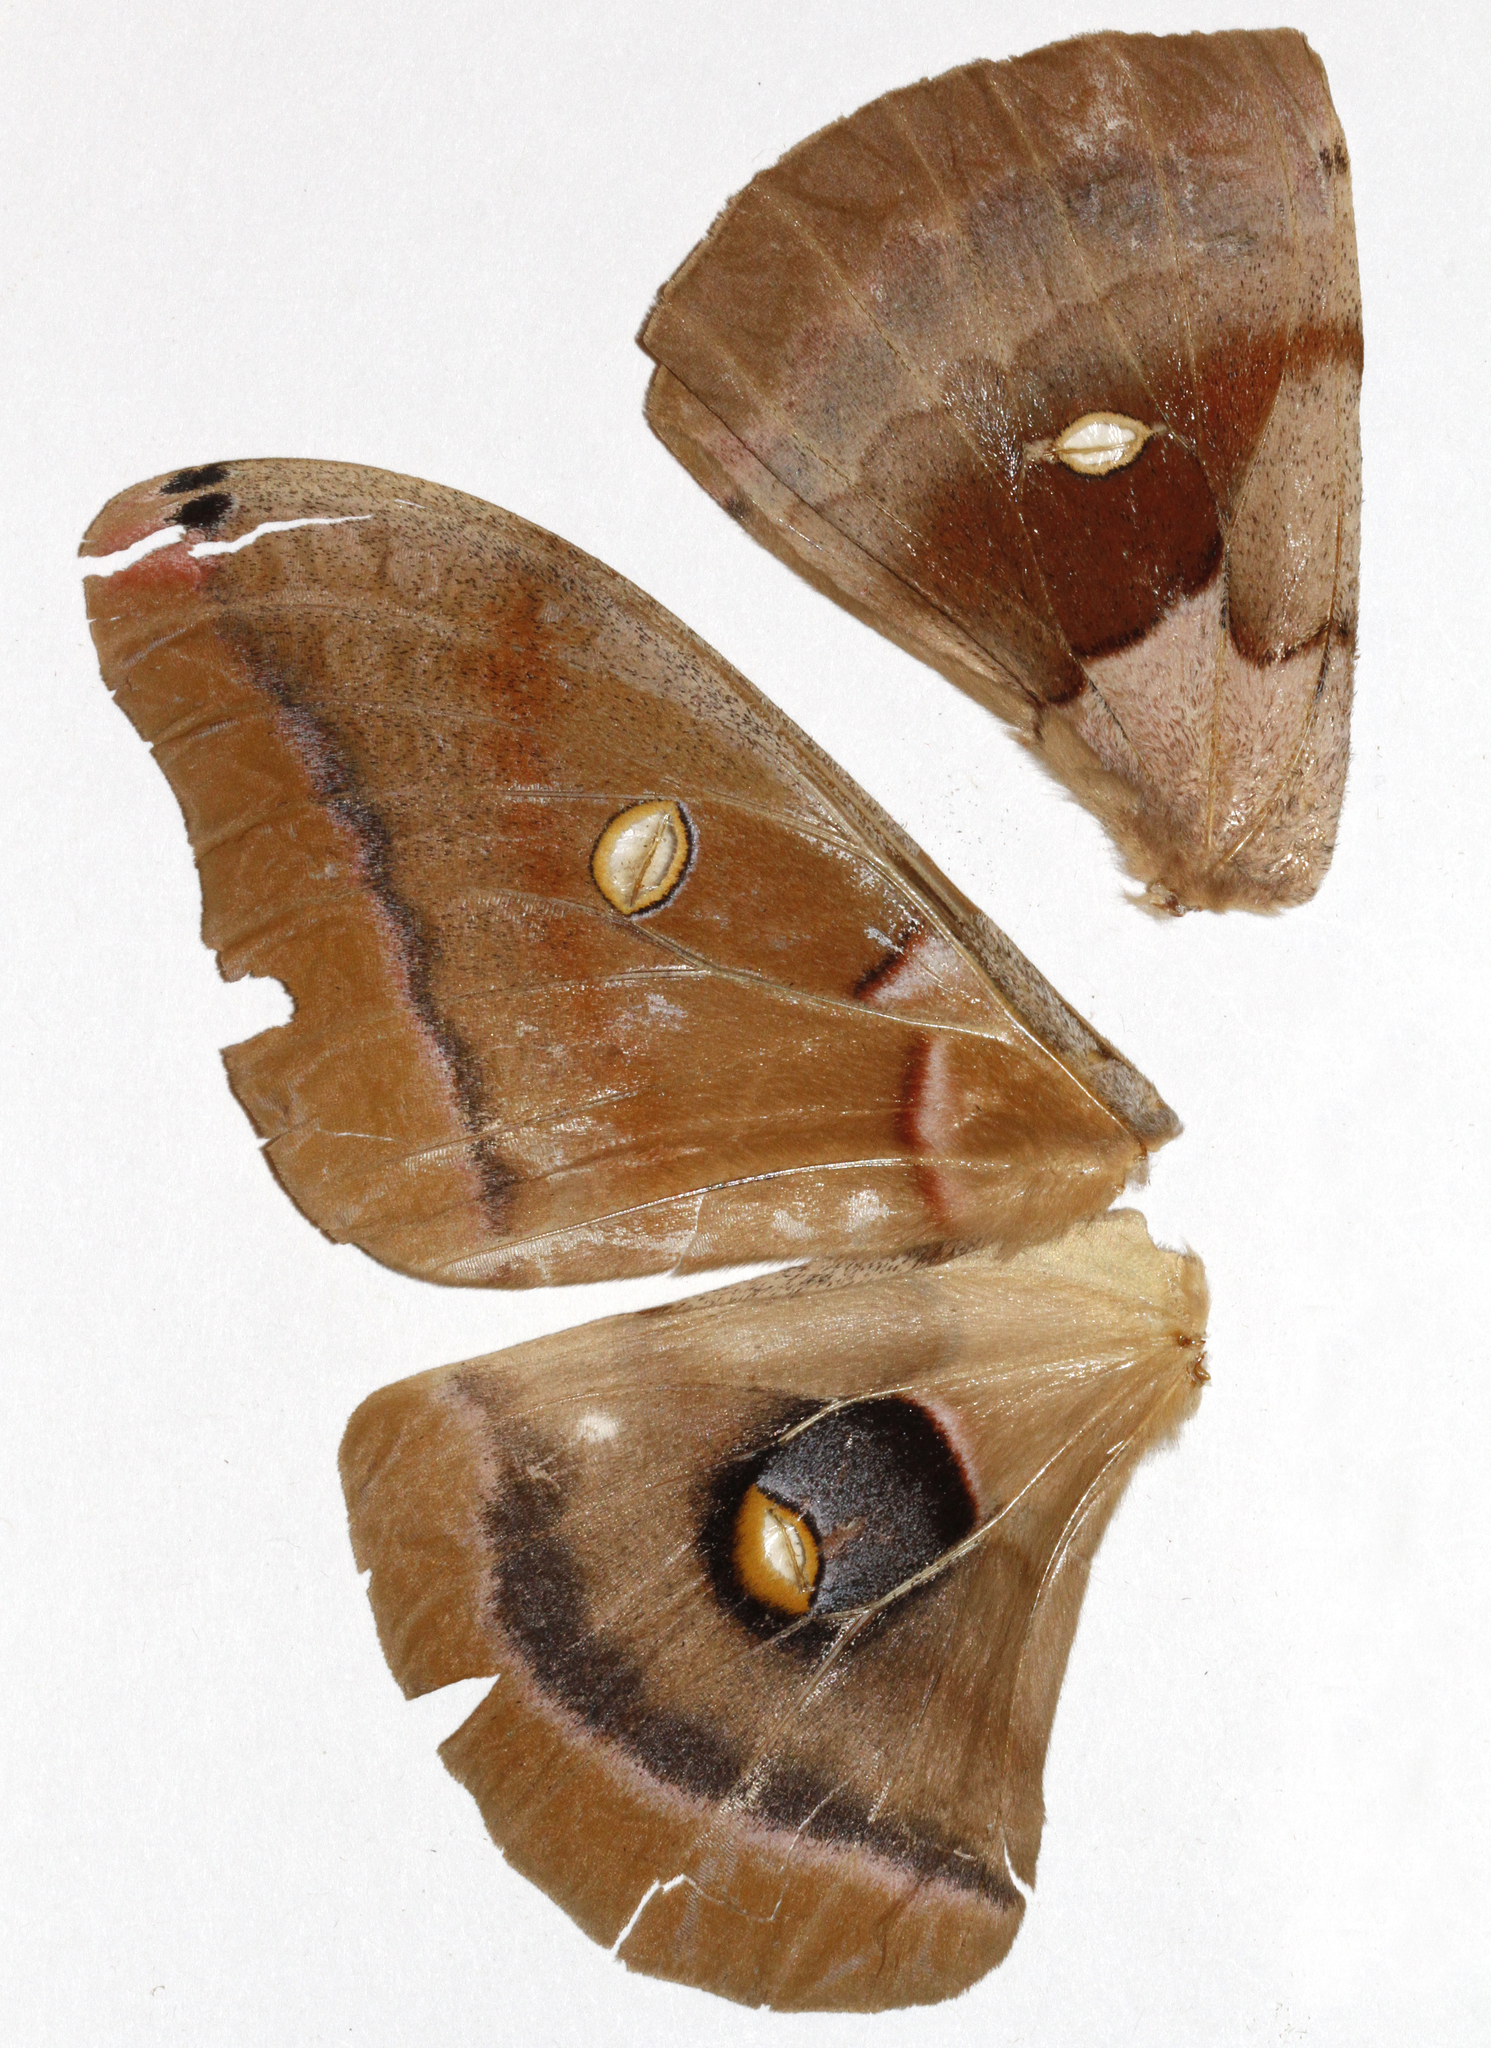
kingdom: Animalia
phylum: Arthropoda
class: Insecta
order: Lepidoptera
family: Saturniidae
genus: Antheraea
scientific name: Antheraea polyphemus
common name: Polyphemus moth
